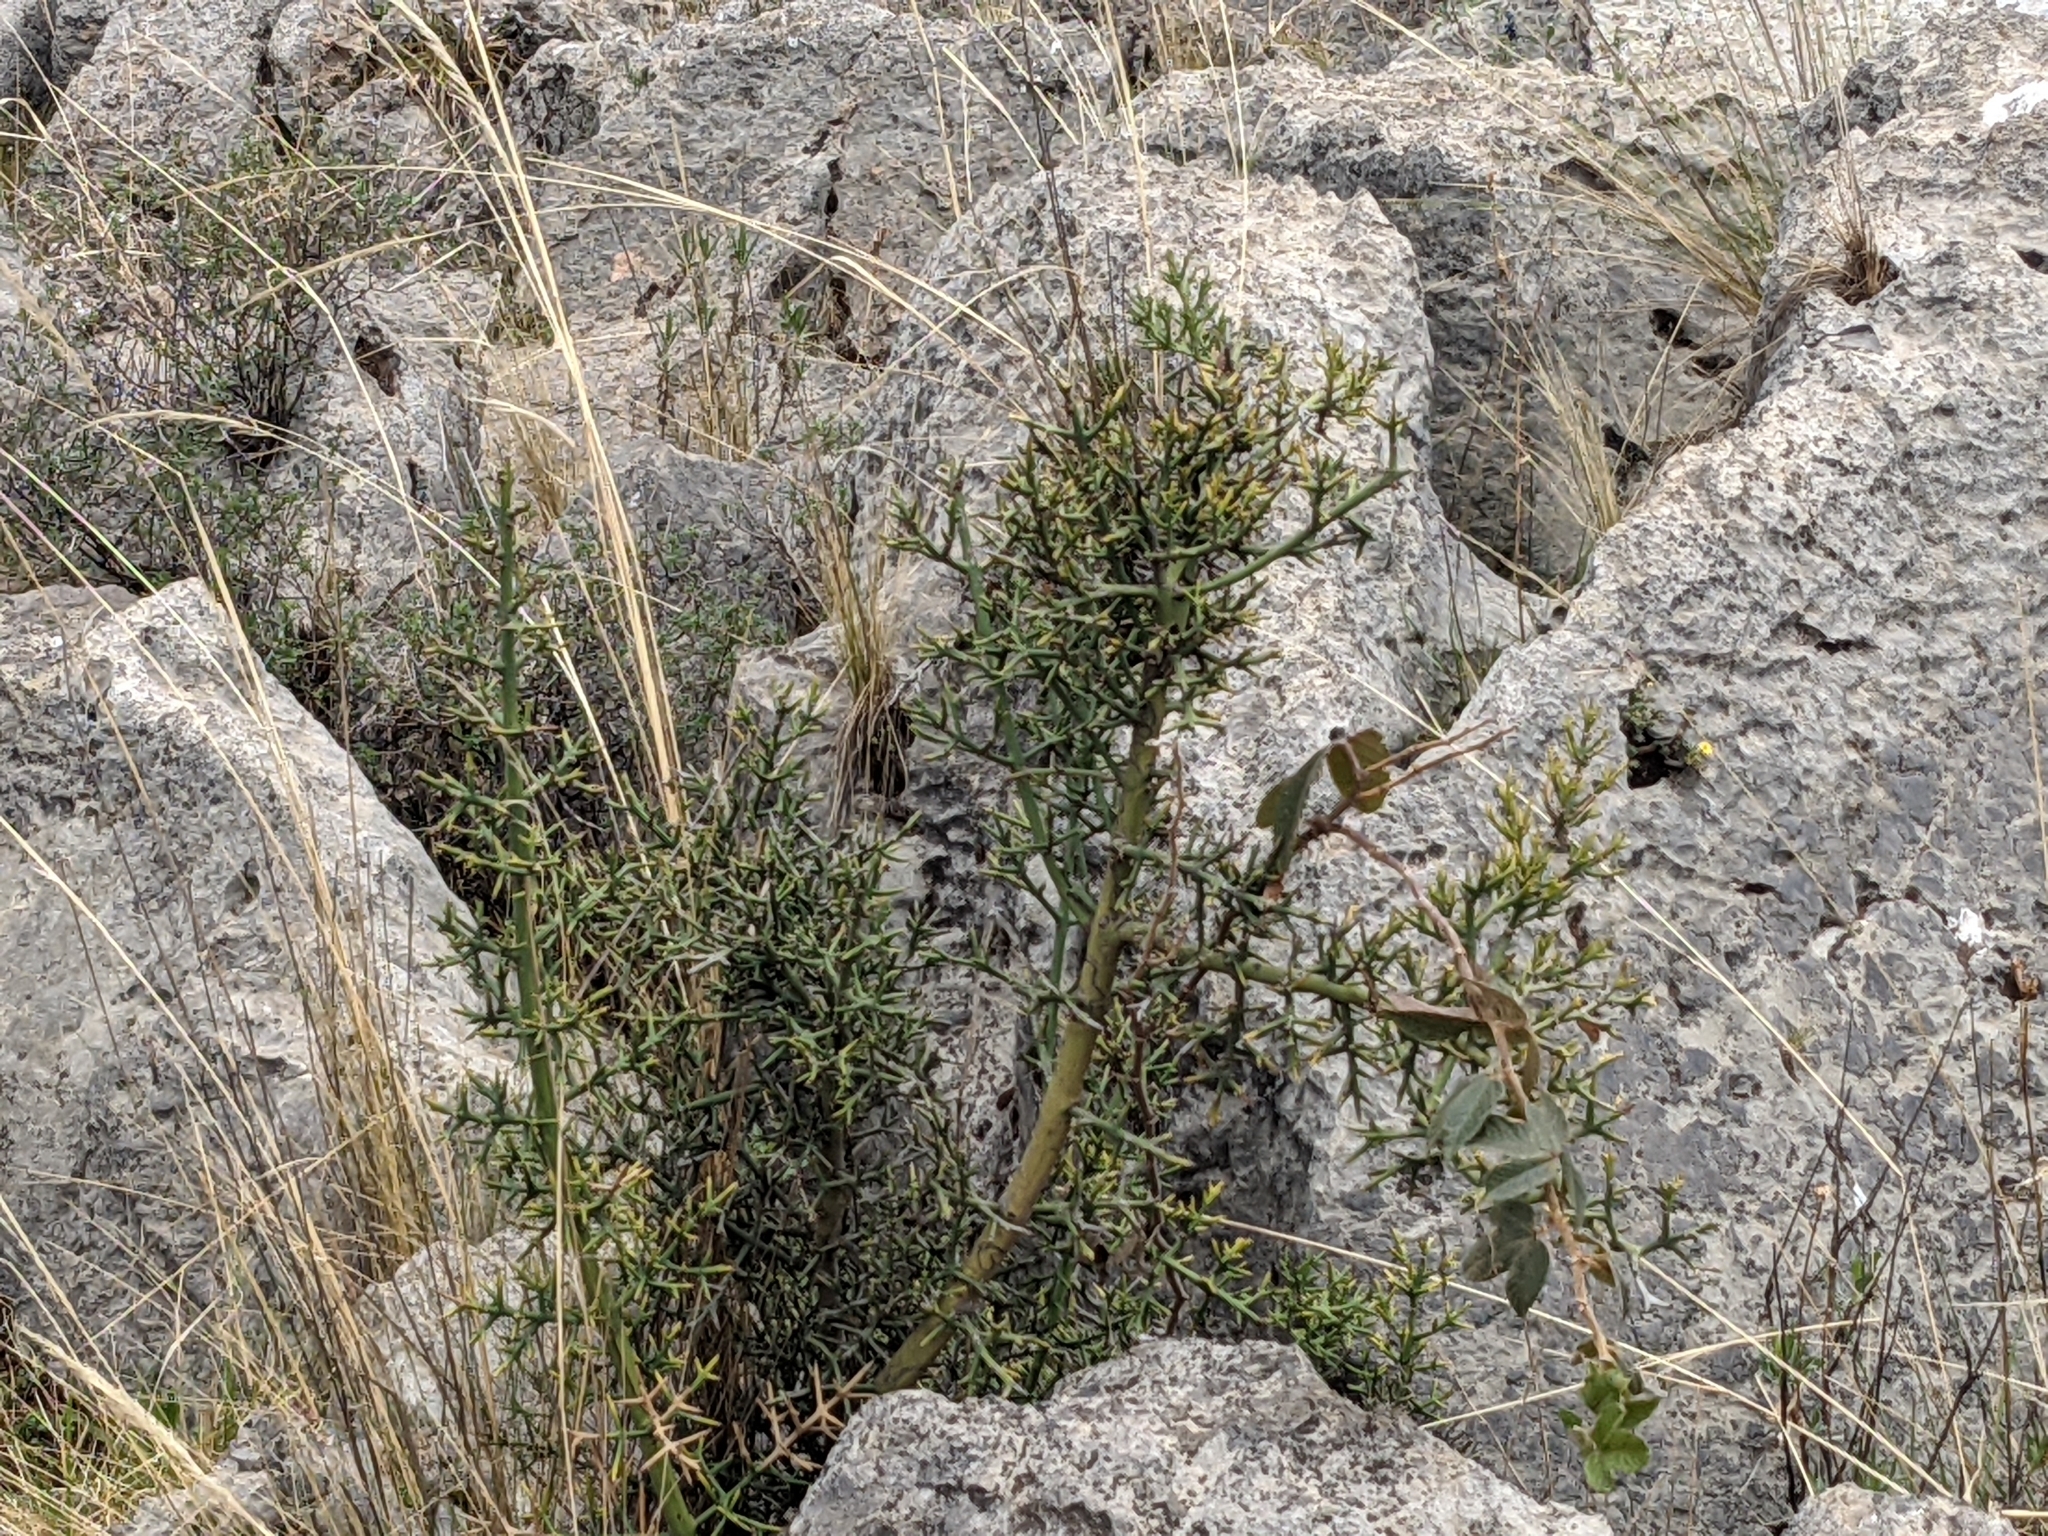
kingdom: Plantae
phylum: Tracheophyta
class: Magnoliopsida
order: Rosales
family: Rhamnaceae
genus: Colletia
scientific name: Colletia spinosissima
